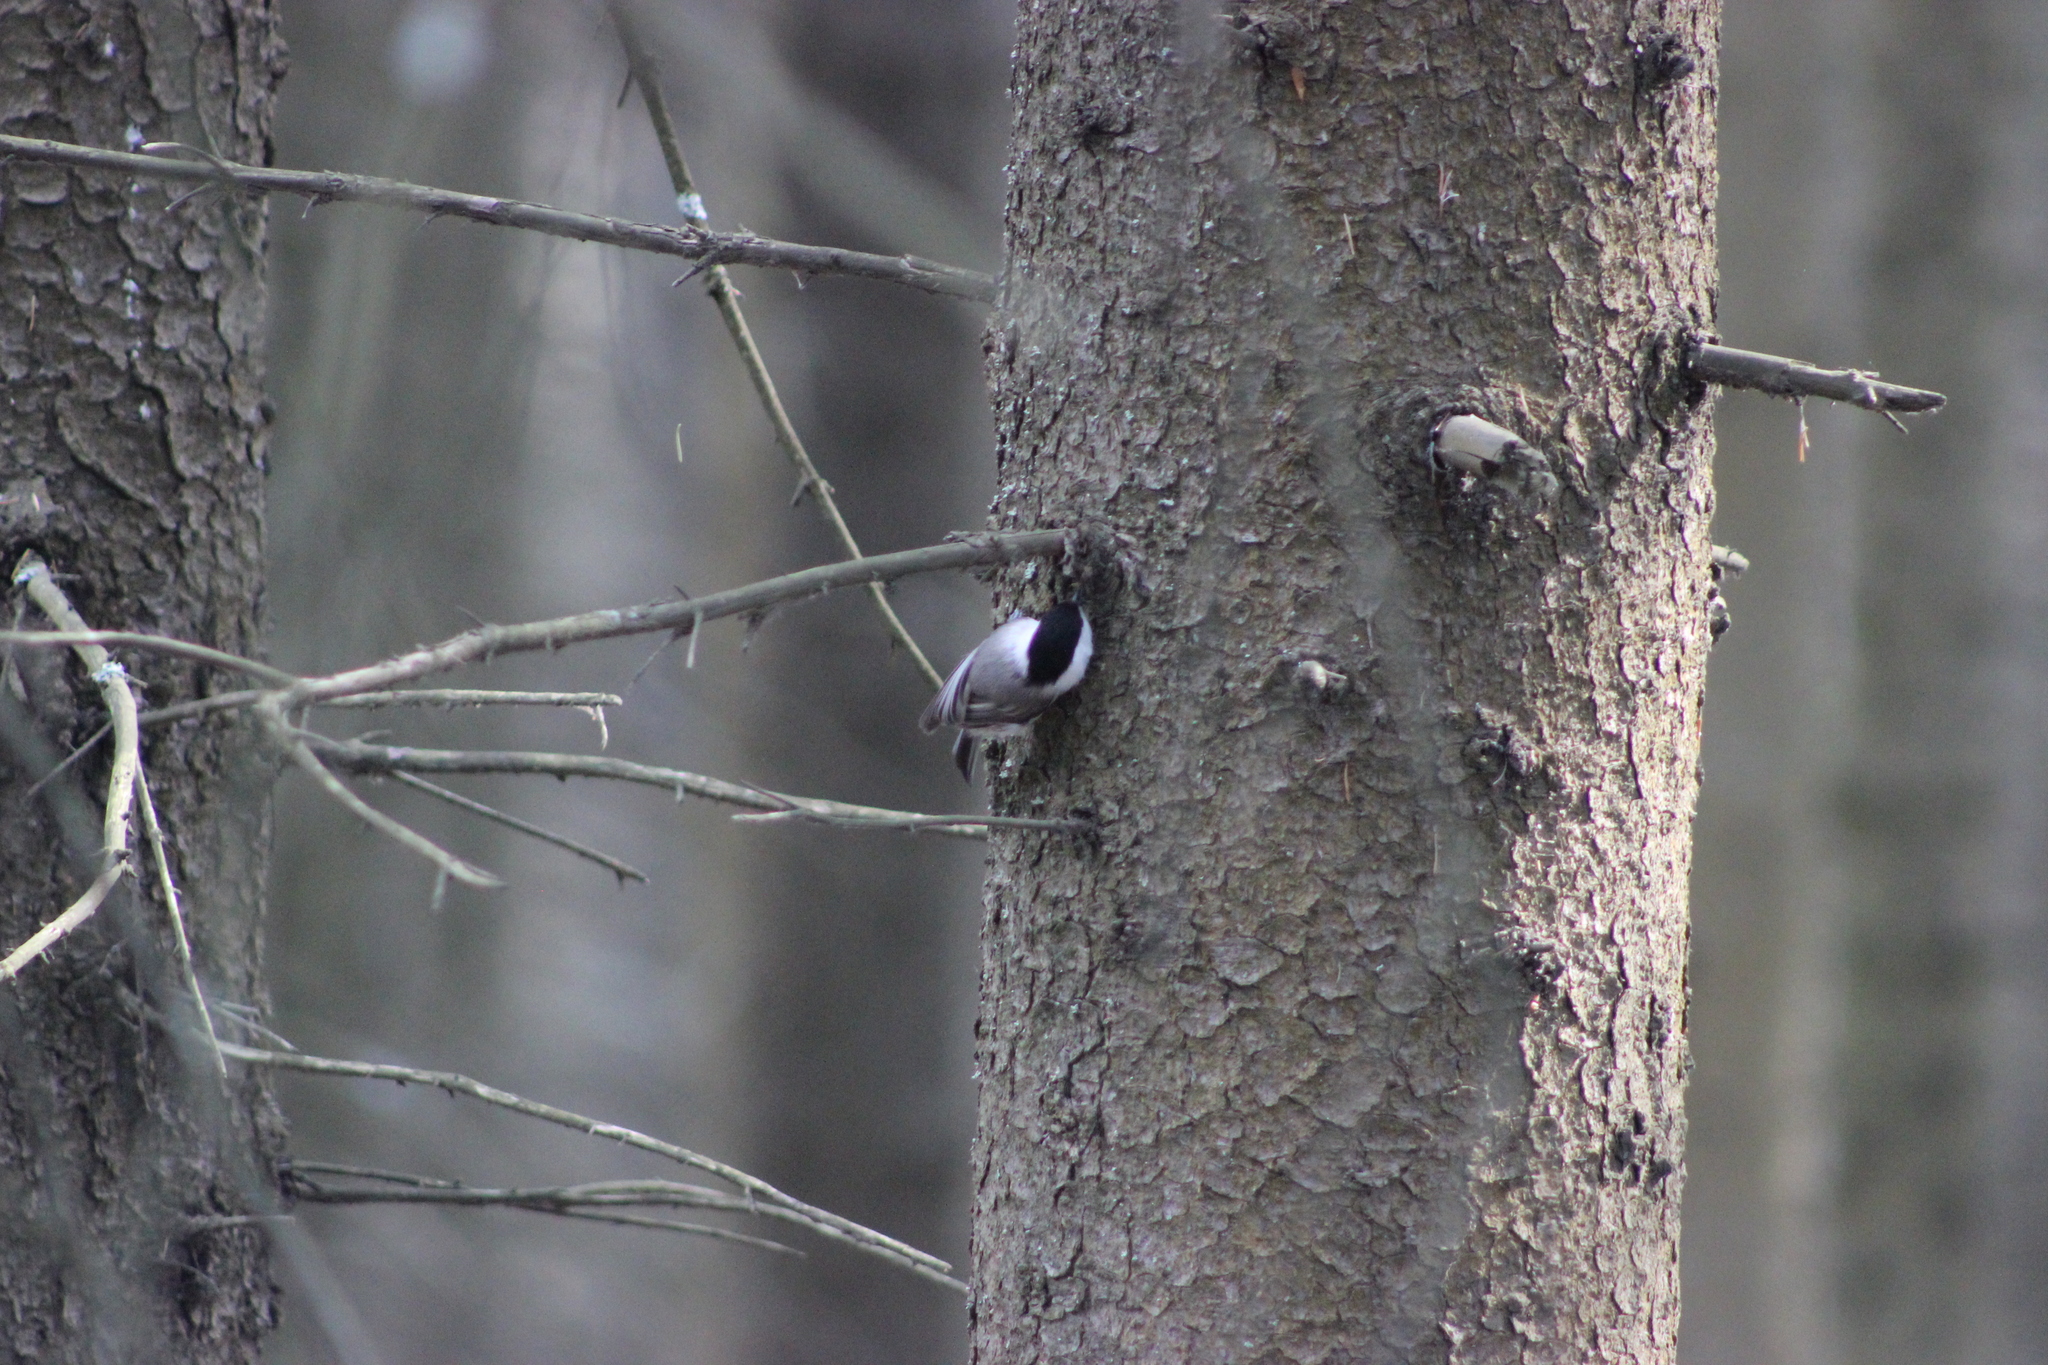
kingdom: Animalia
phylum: Chordata
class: Aves
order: Passeriformes
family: Paridae
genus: Poecile
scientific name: Poecile montanus
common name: Willow tit
